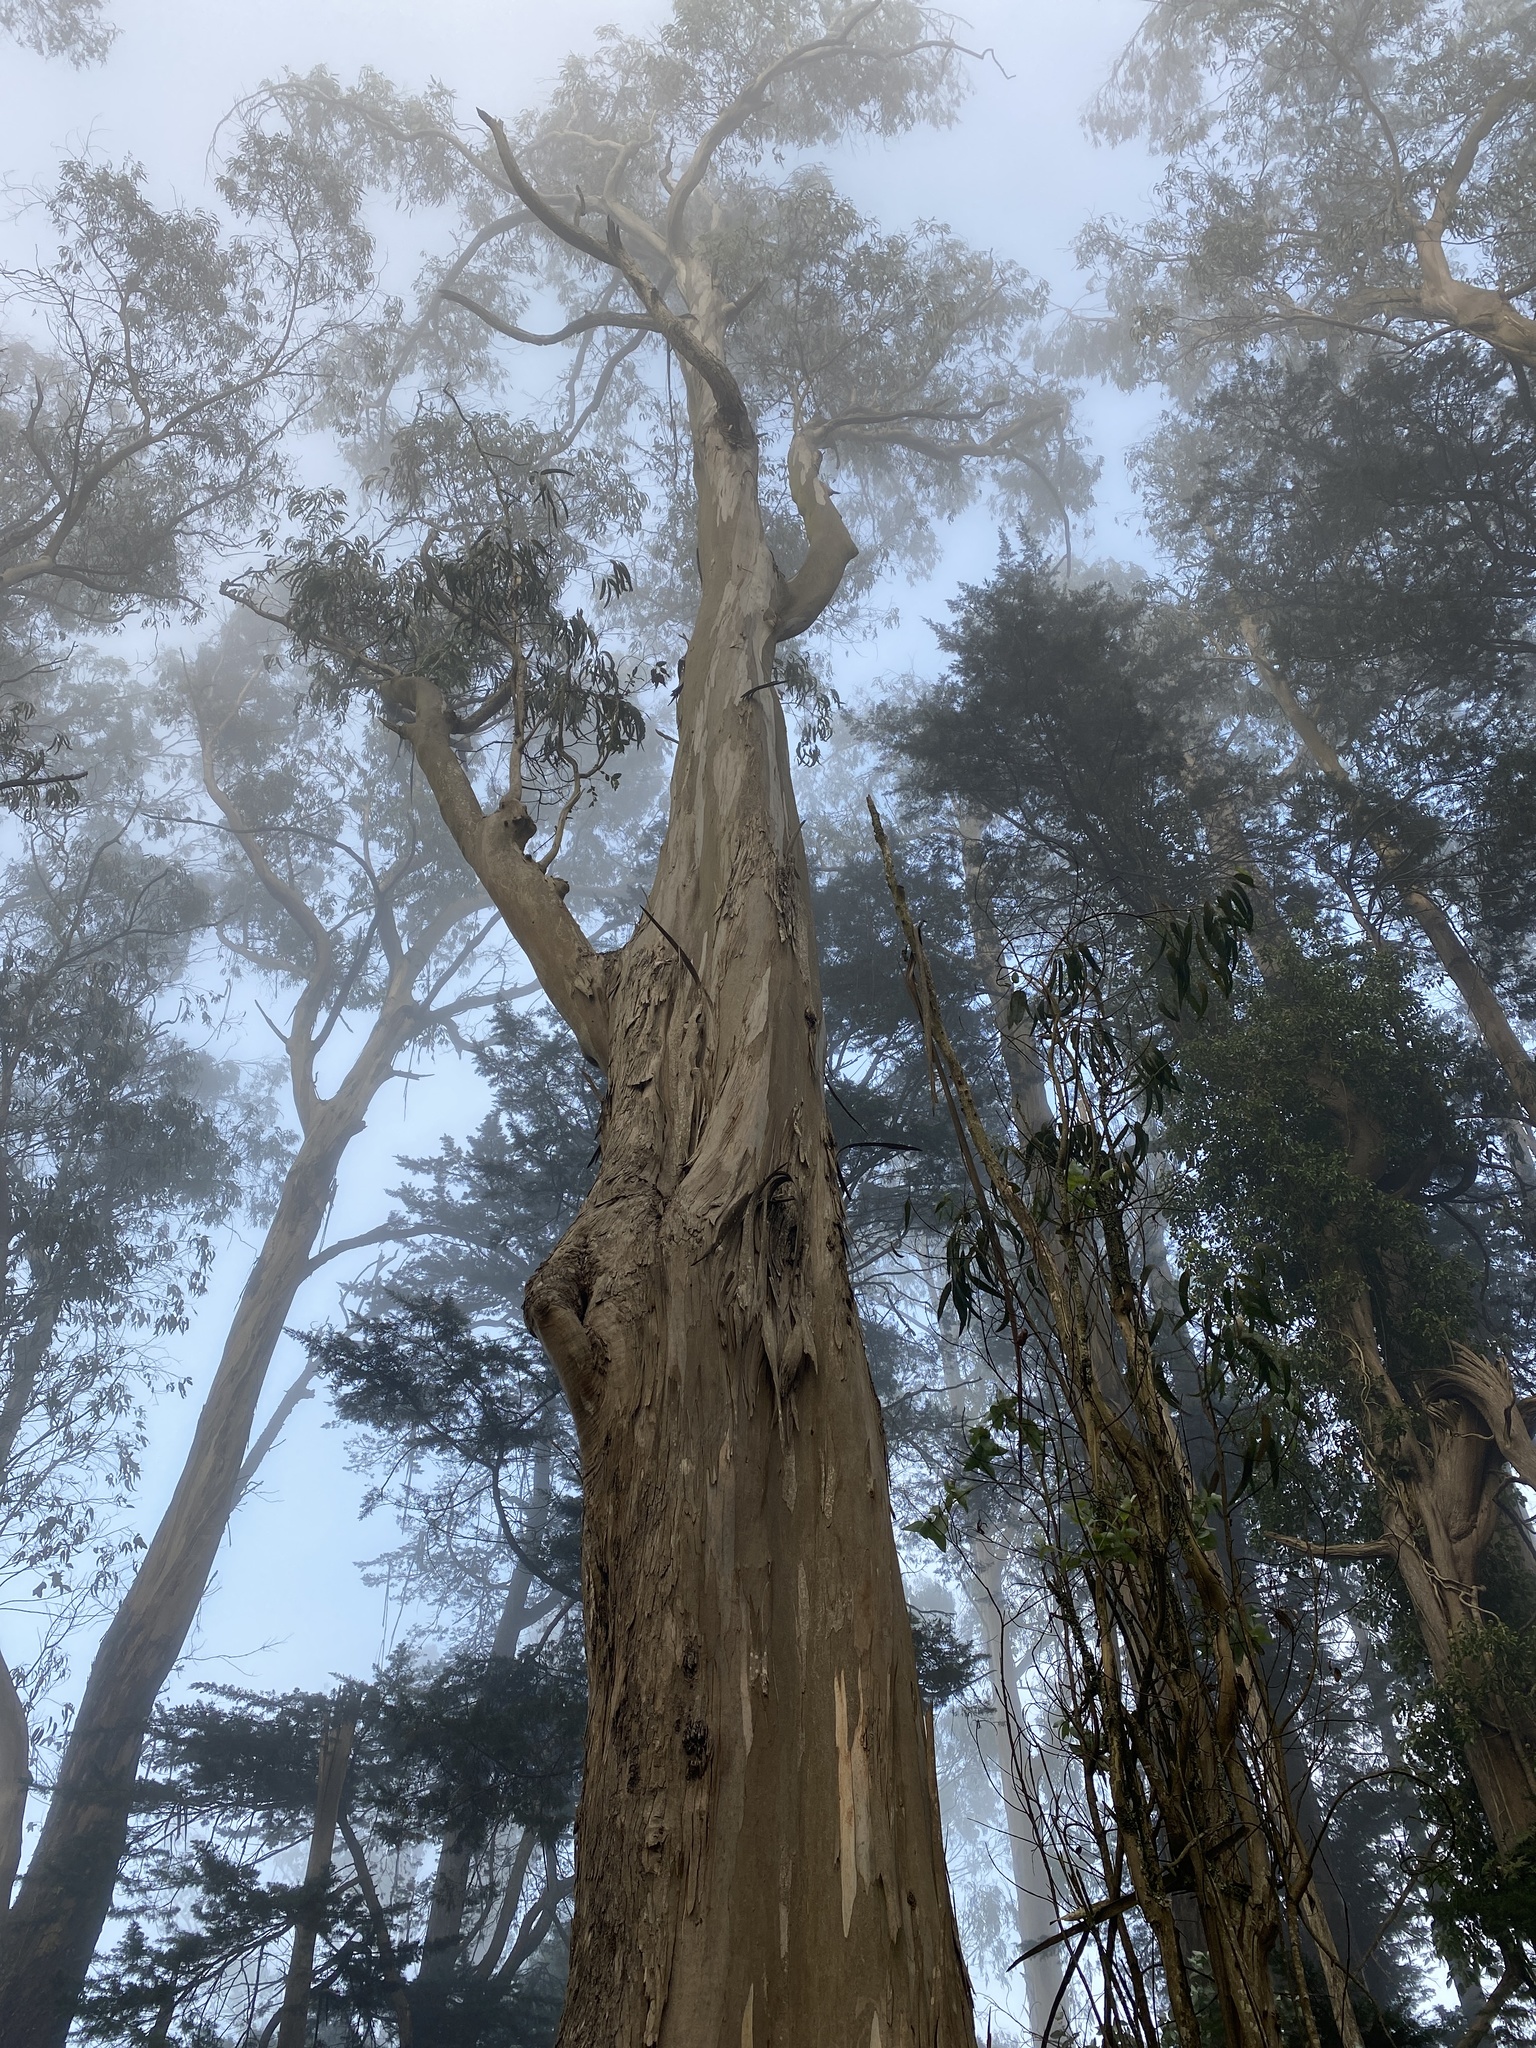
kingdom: Plantae
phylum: Tracheophyta
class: Magnoliopsida
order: Myrtales
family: Myrtaceae
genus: Eucalyptus
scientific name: Eucalyptus globulus
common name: Southern blue-gum
